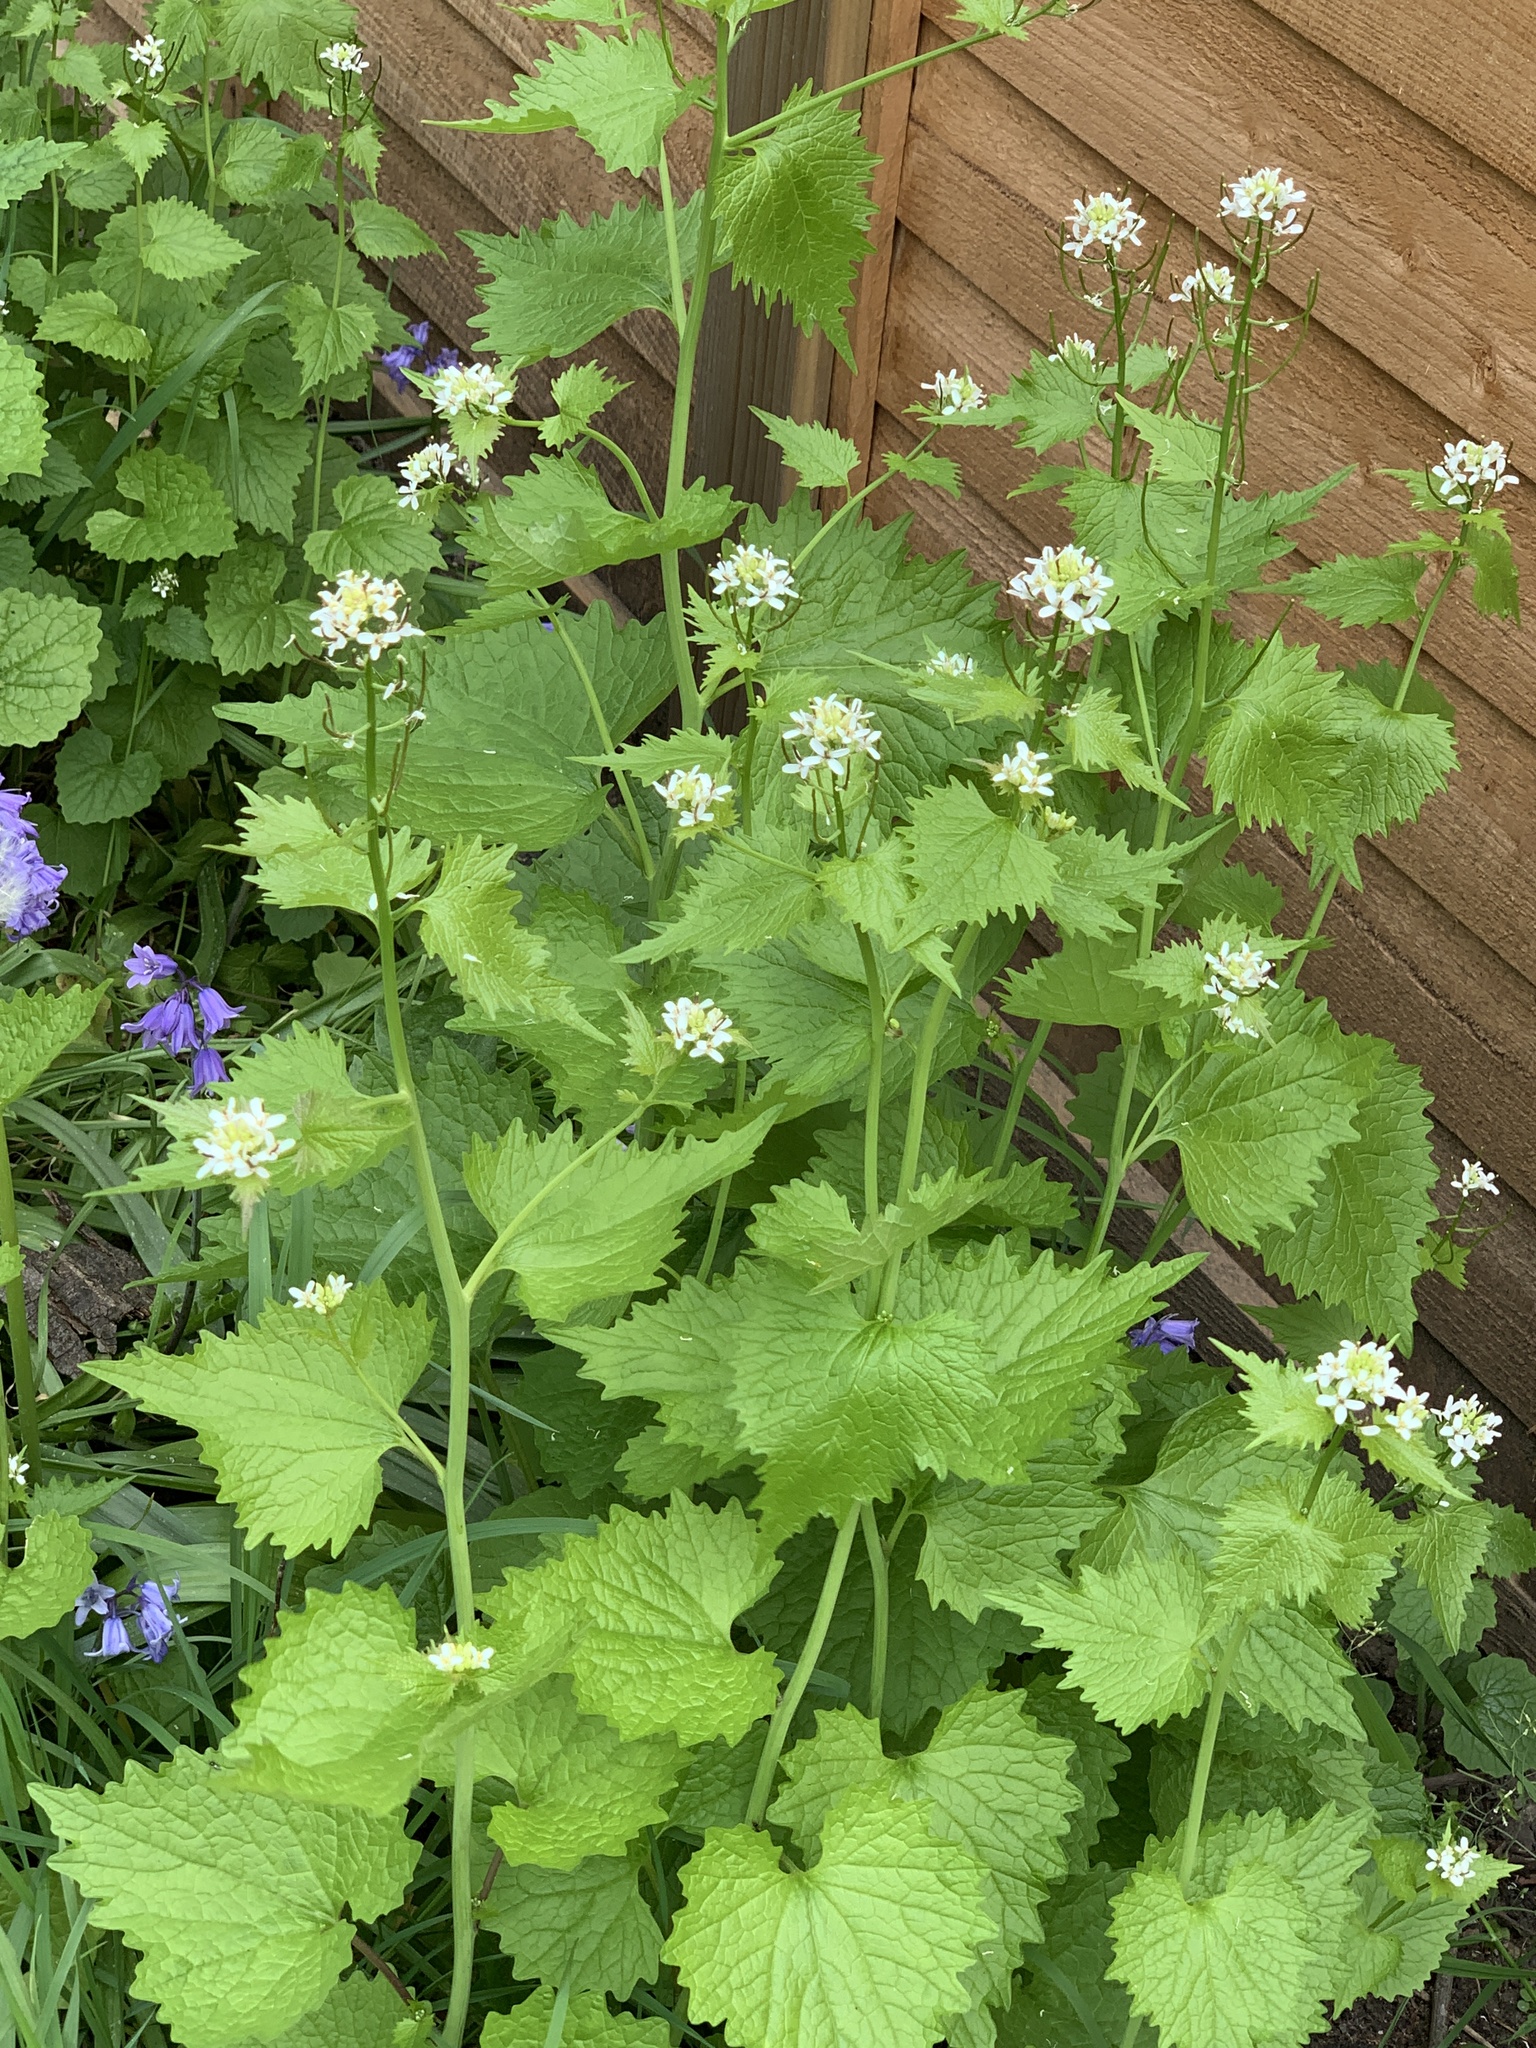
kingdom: Plantae
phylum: Tracheophyta
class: Magnoliopsida
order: Brassicales
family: Brassicaceae
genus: Alliaria
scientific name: Alliaria petiolata
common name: Garlic mustard
